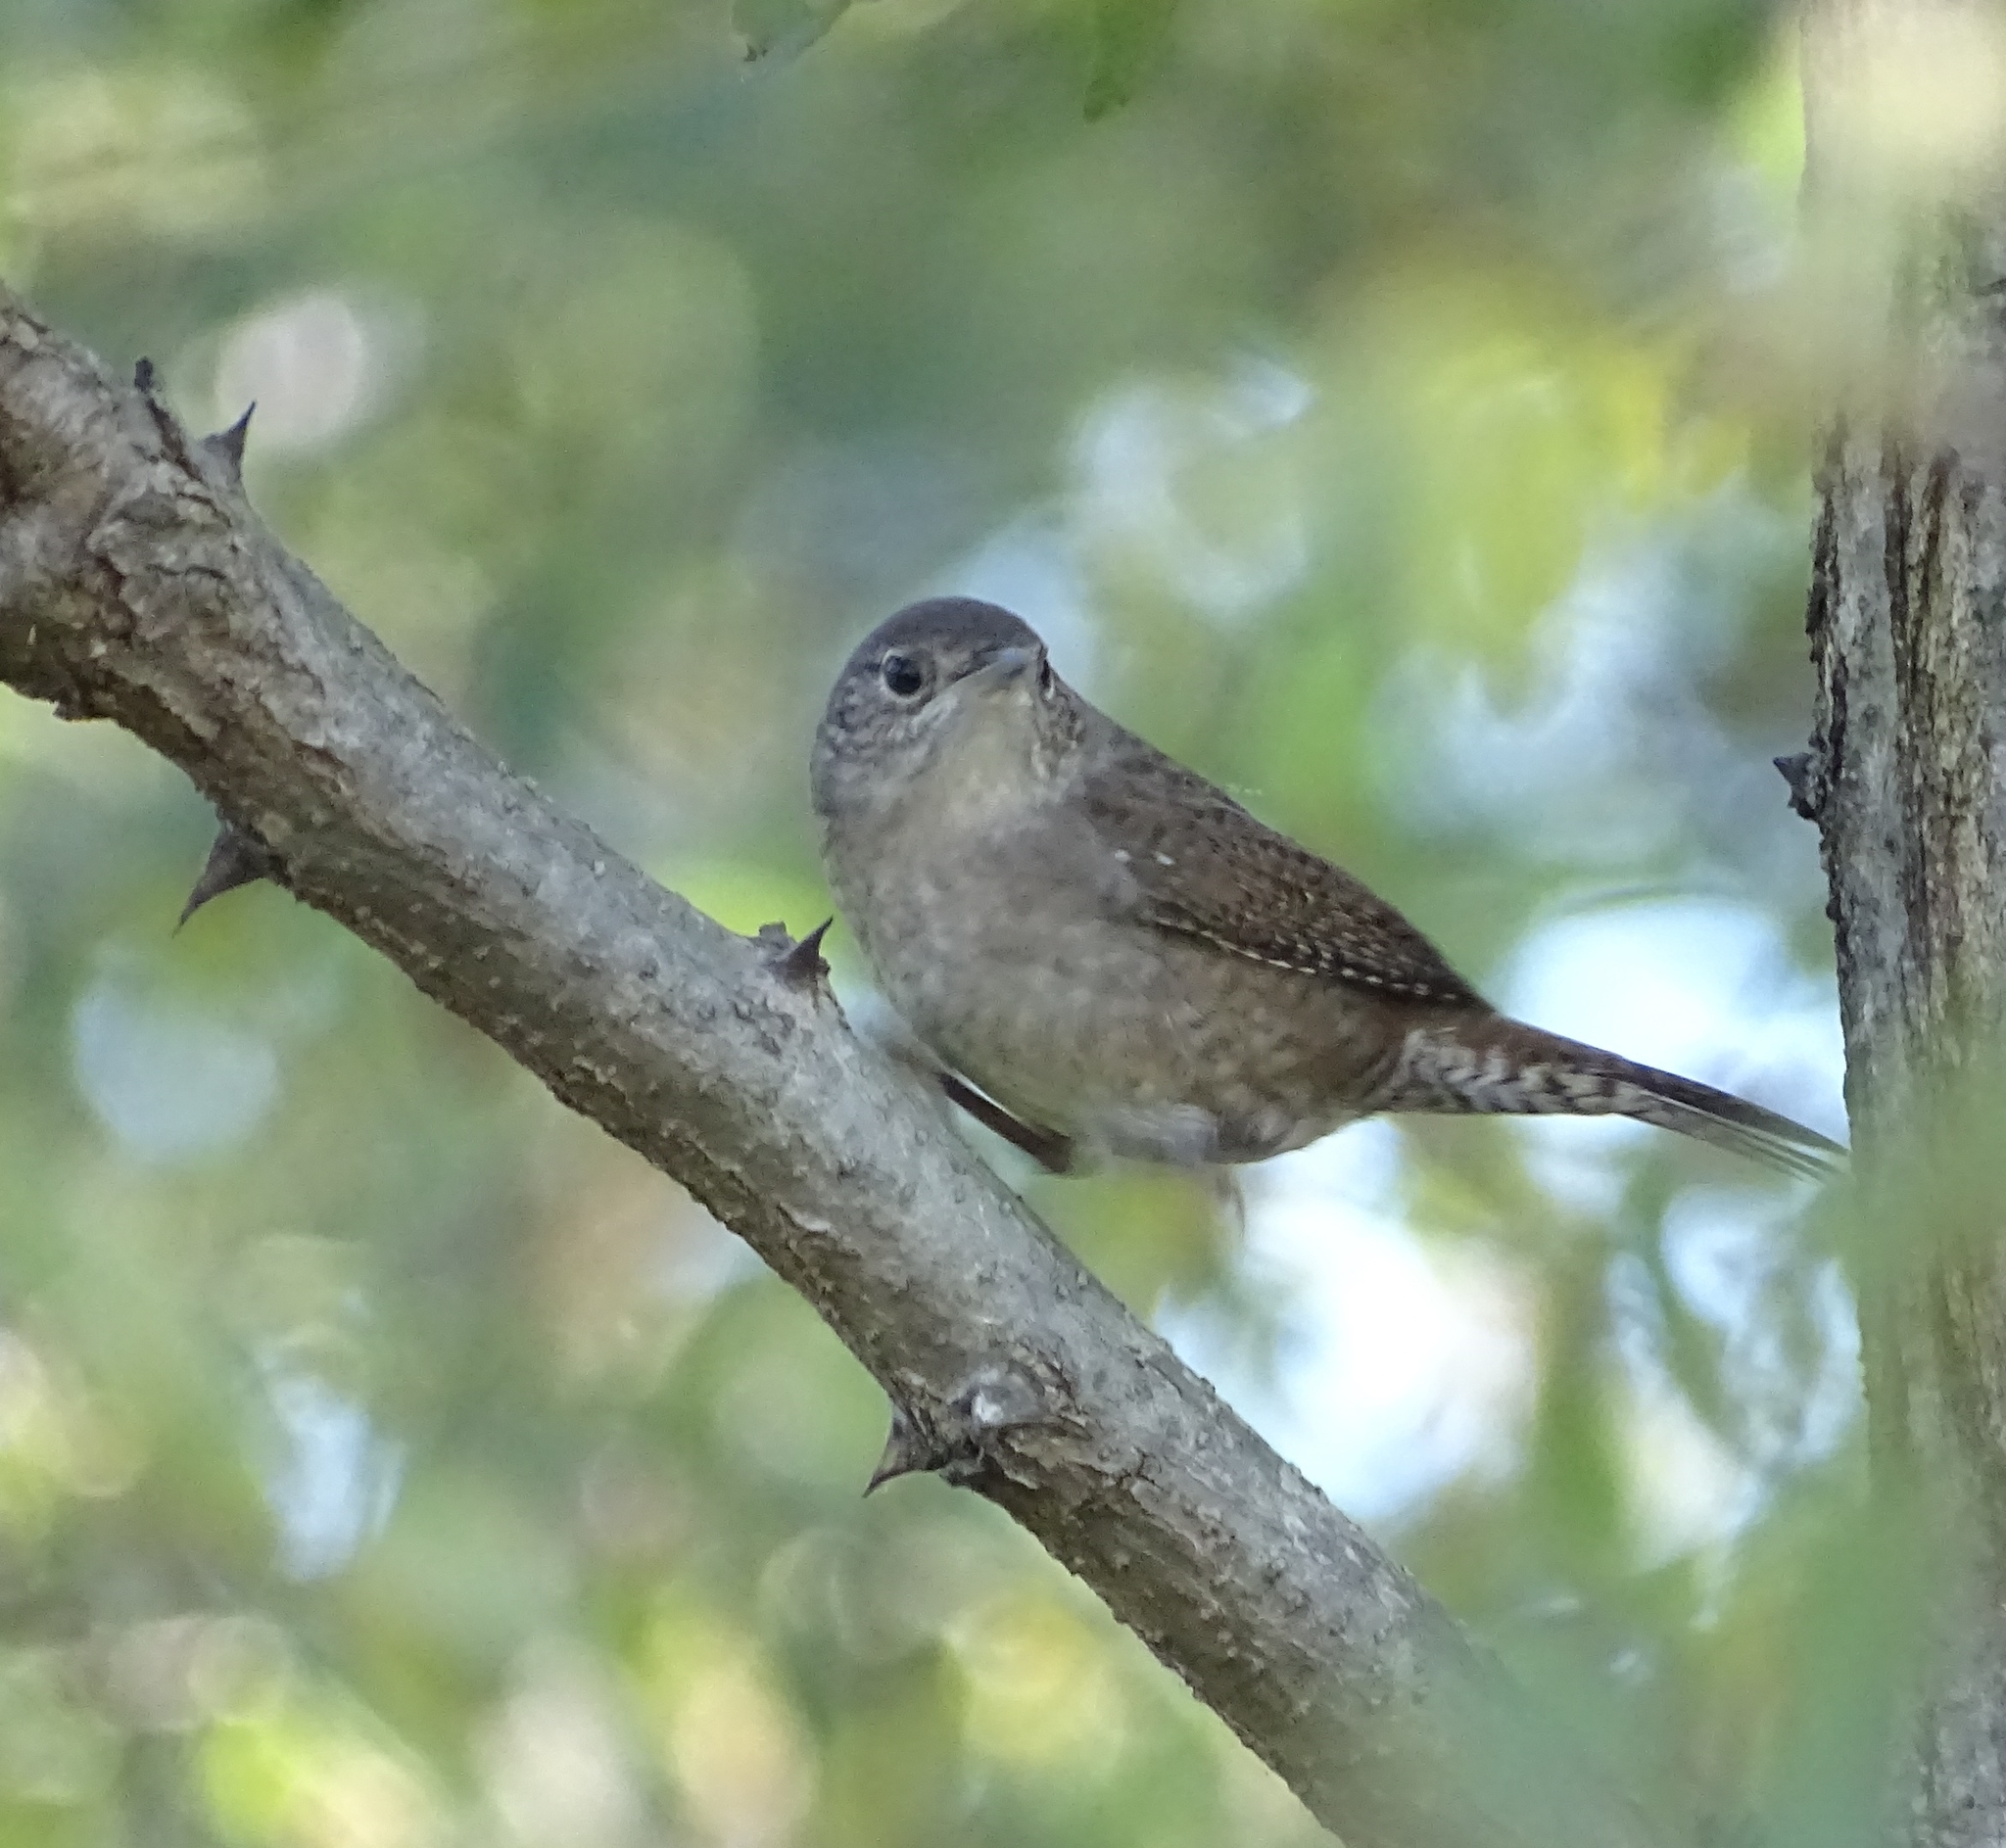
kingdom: Animalia
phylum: Chordata
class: Aves
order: Passeriformes
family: Troglodytidae
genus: Troglodytes
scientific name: Troglodytes aedon
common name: House wren
